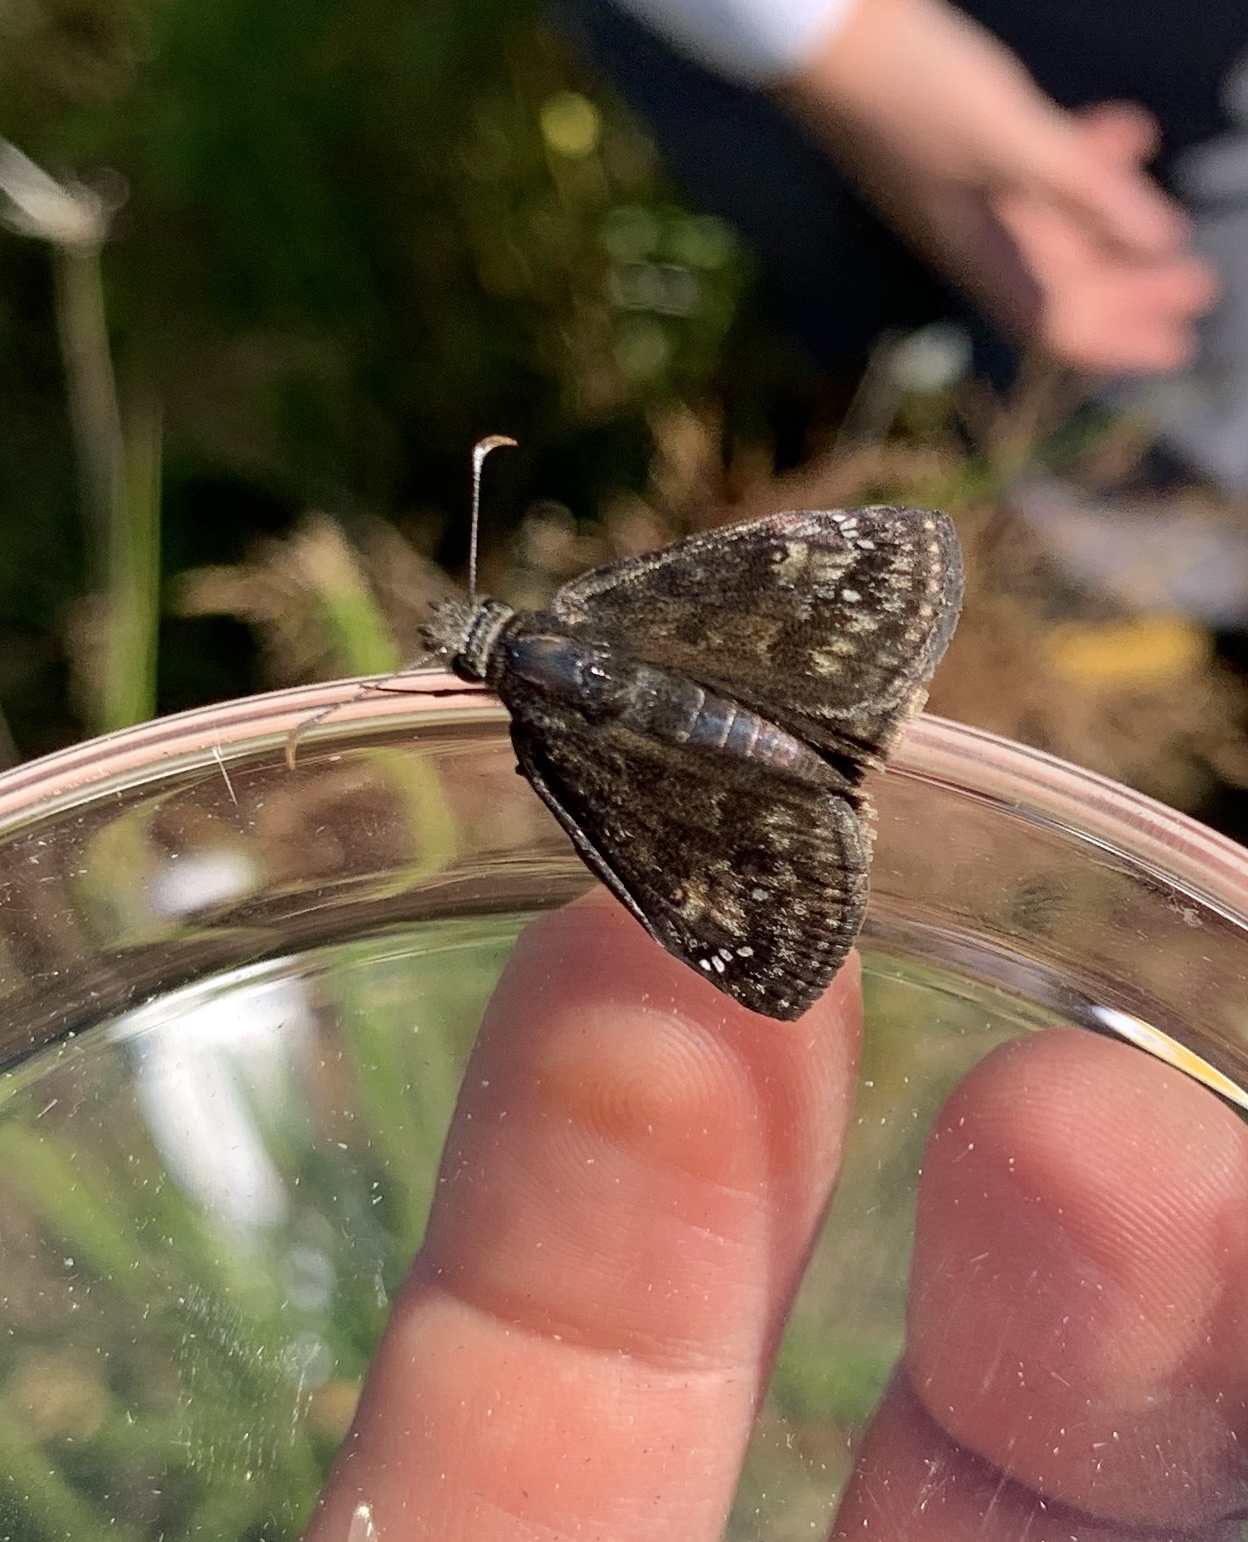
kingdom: Animalia
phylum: Arthropoda
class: Insecta
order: Lepidoptera
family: Hesperiidae
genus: Erynnis
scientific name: Erynnis baptisiae
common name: Wild indigo duskywing
